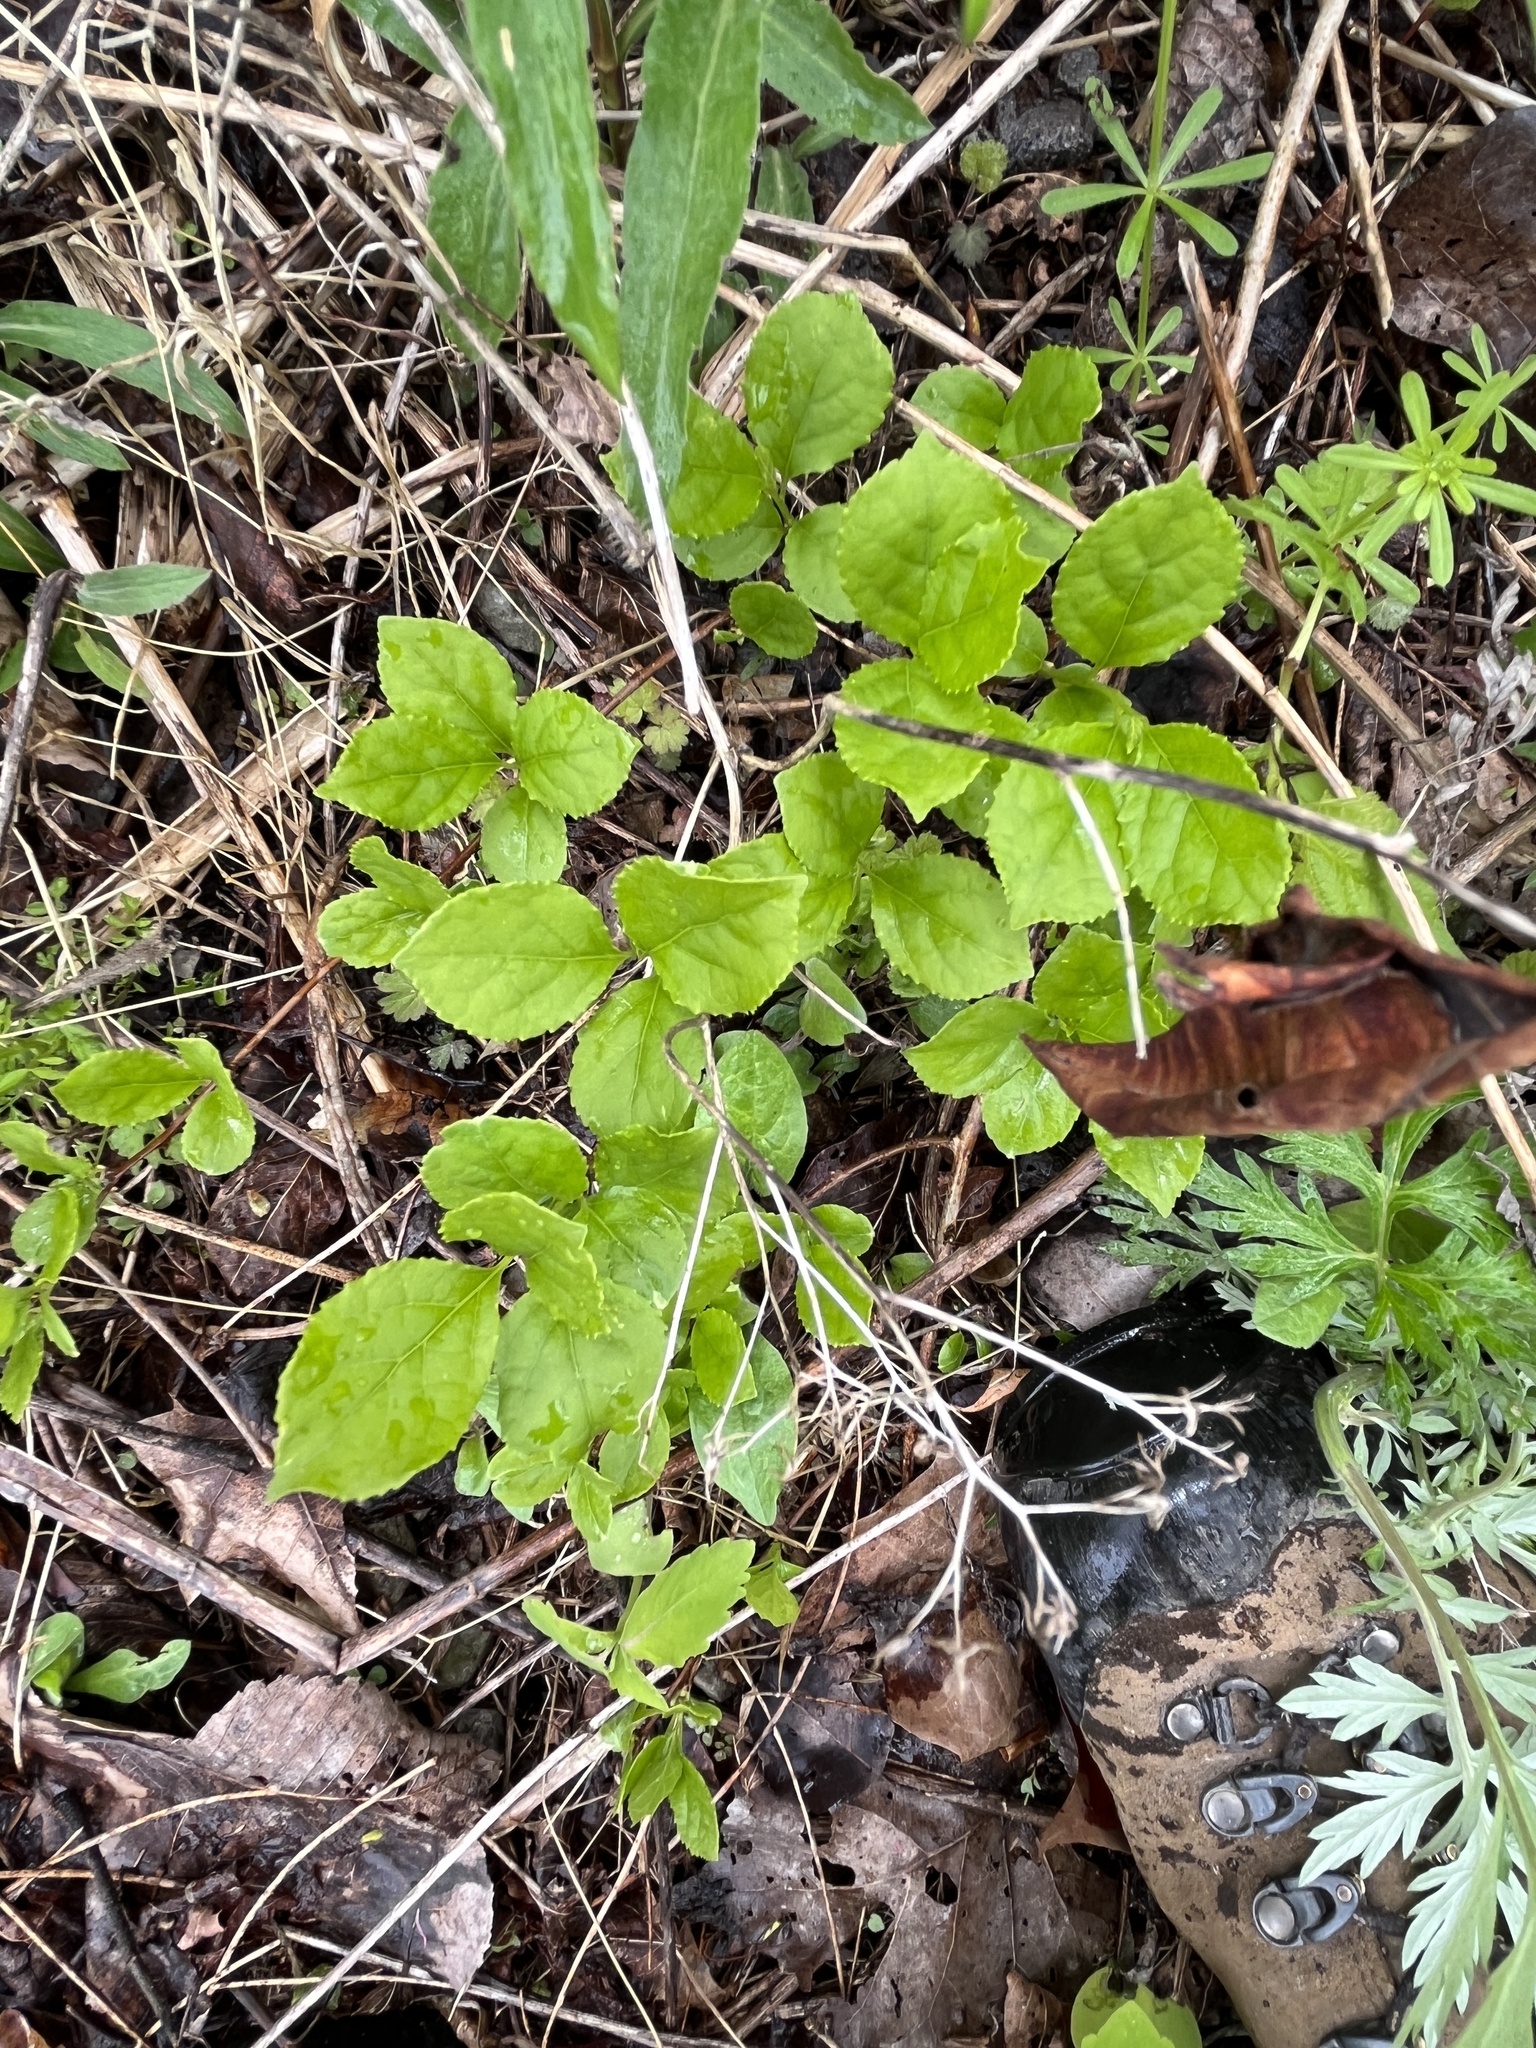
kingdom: Plantae
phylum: Tracheophyta
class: Magnoliopsida
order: Celastrales
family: Celastraceae
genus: Celastrus
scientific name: Celastrus orbiculatus
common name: Oriental bittersweet
